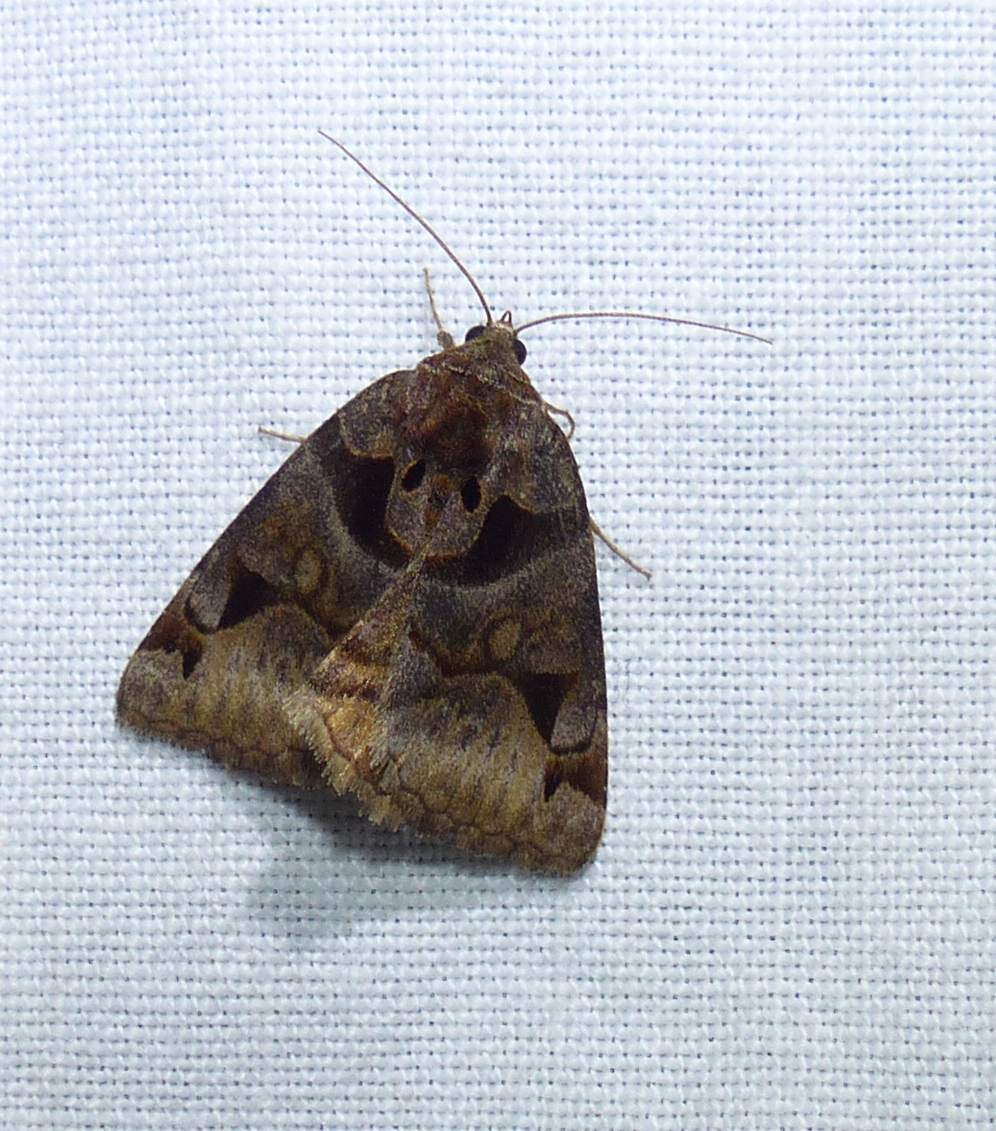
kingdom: Animalia
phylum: Arthropoda
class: Insecta
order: Lepidoptera
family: Erebidae
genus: Euclidia
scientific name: Euclidia cuspidea
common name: Toothed somberwing
